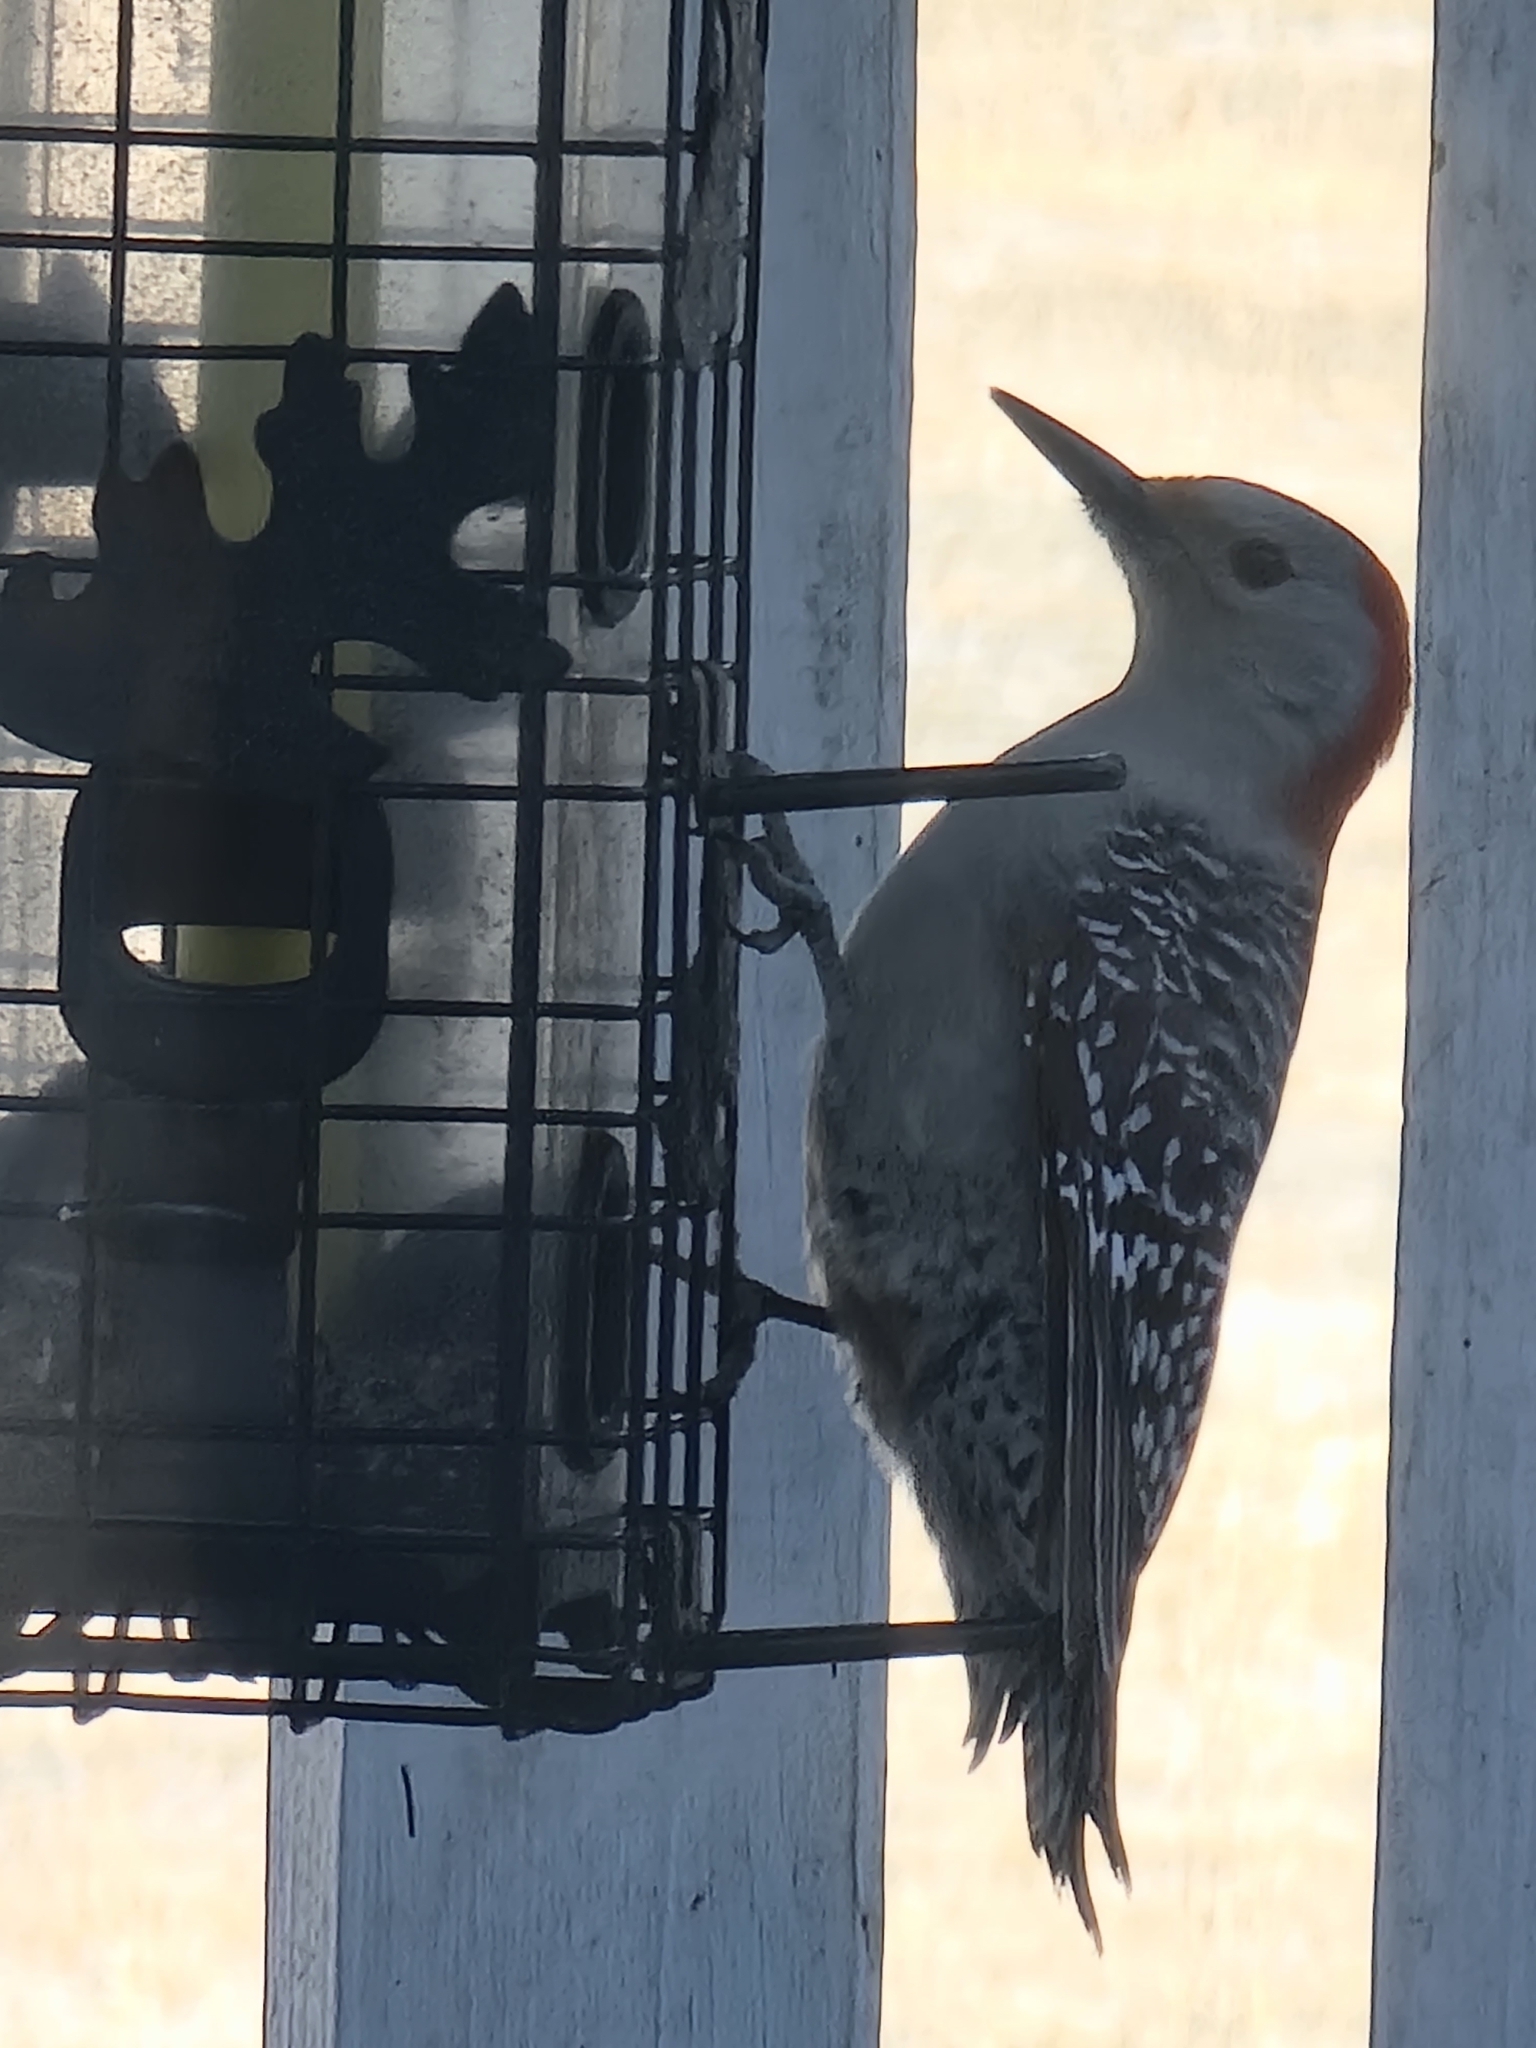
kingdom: Animalia
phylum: Chordata
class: Aves
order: Piciformes
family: Picidae
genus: Melanerpes
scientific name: Melanerpes carolinus
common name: Red-bellied woodpecker
